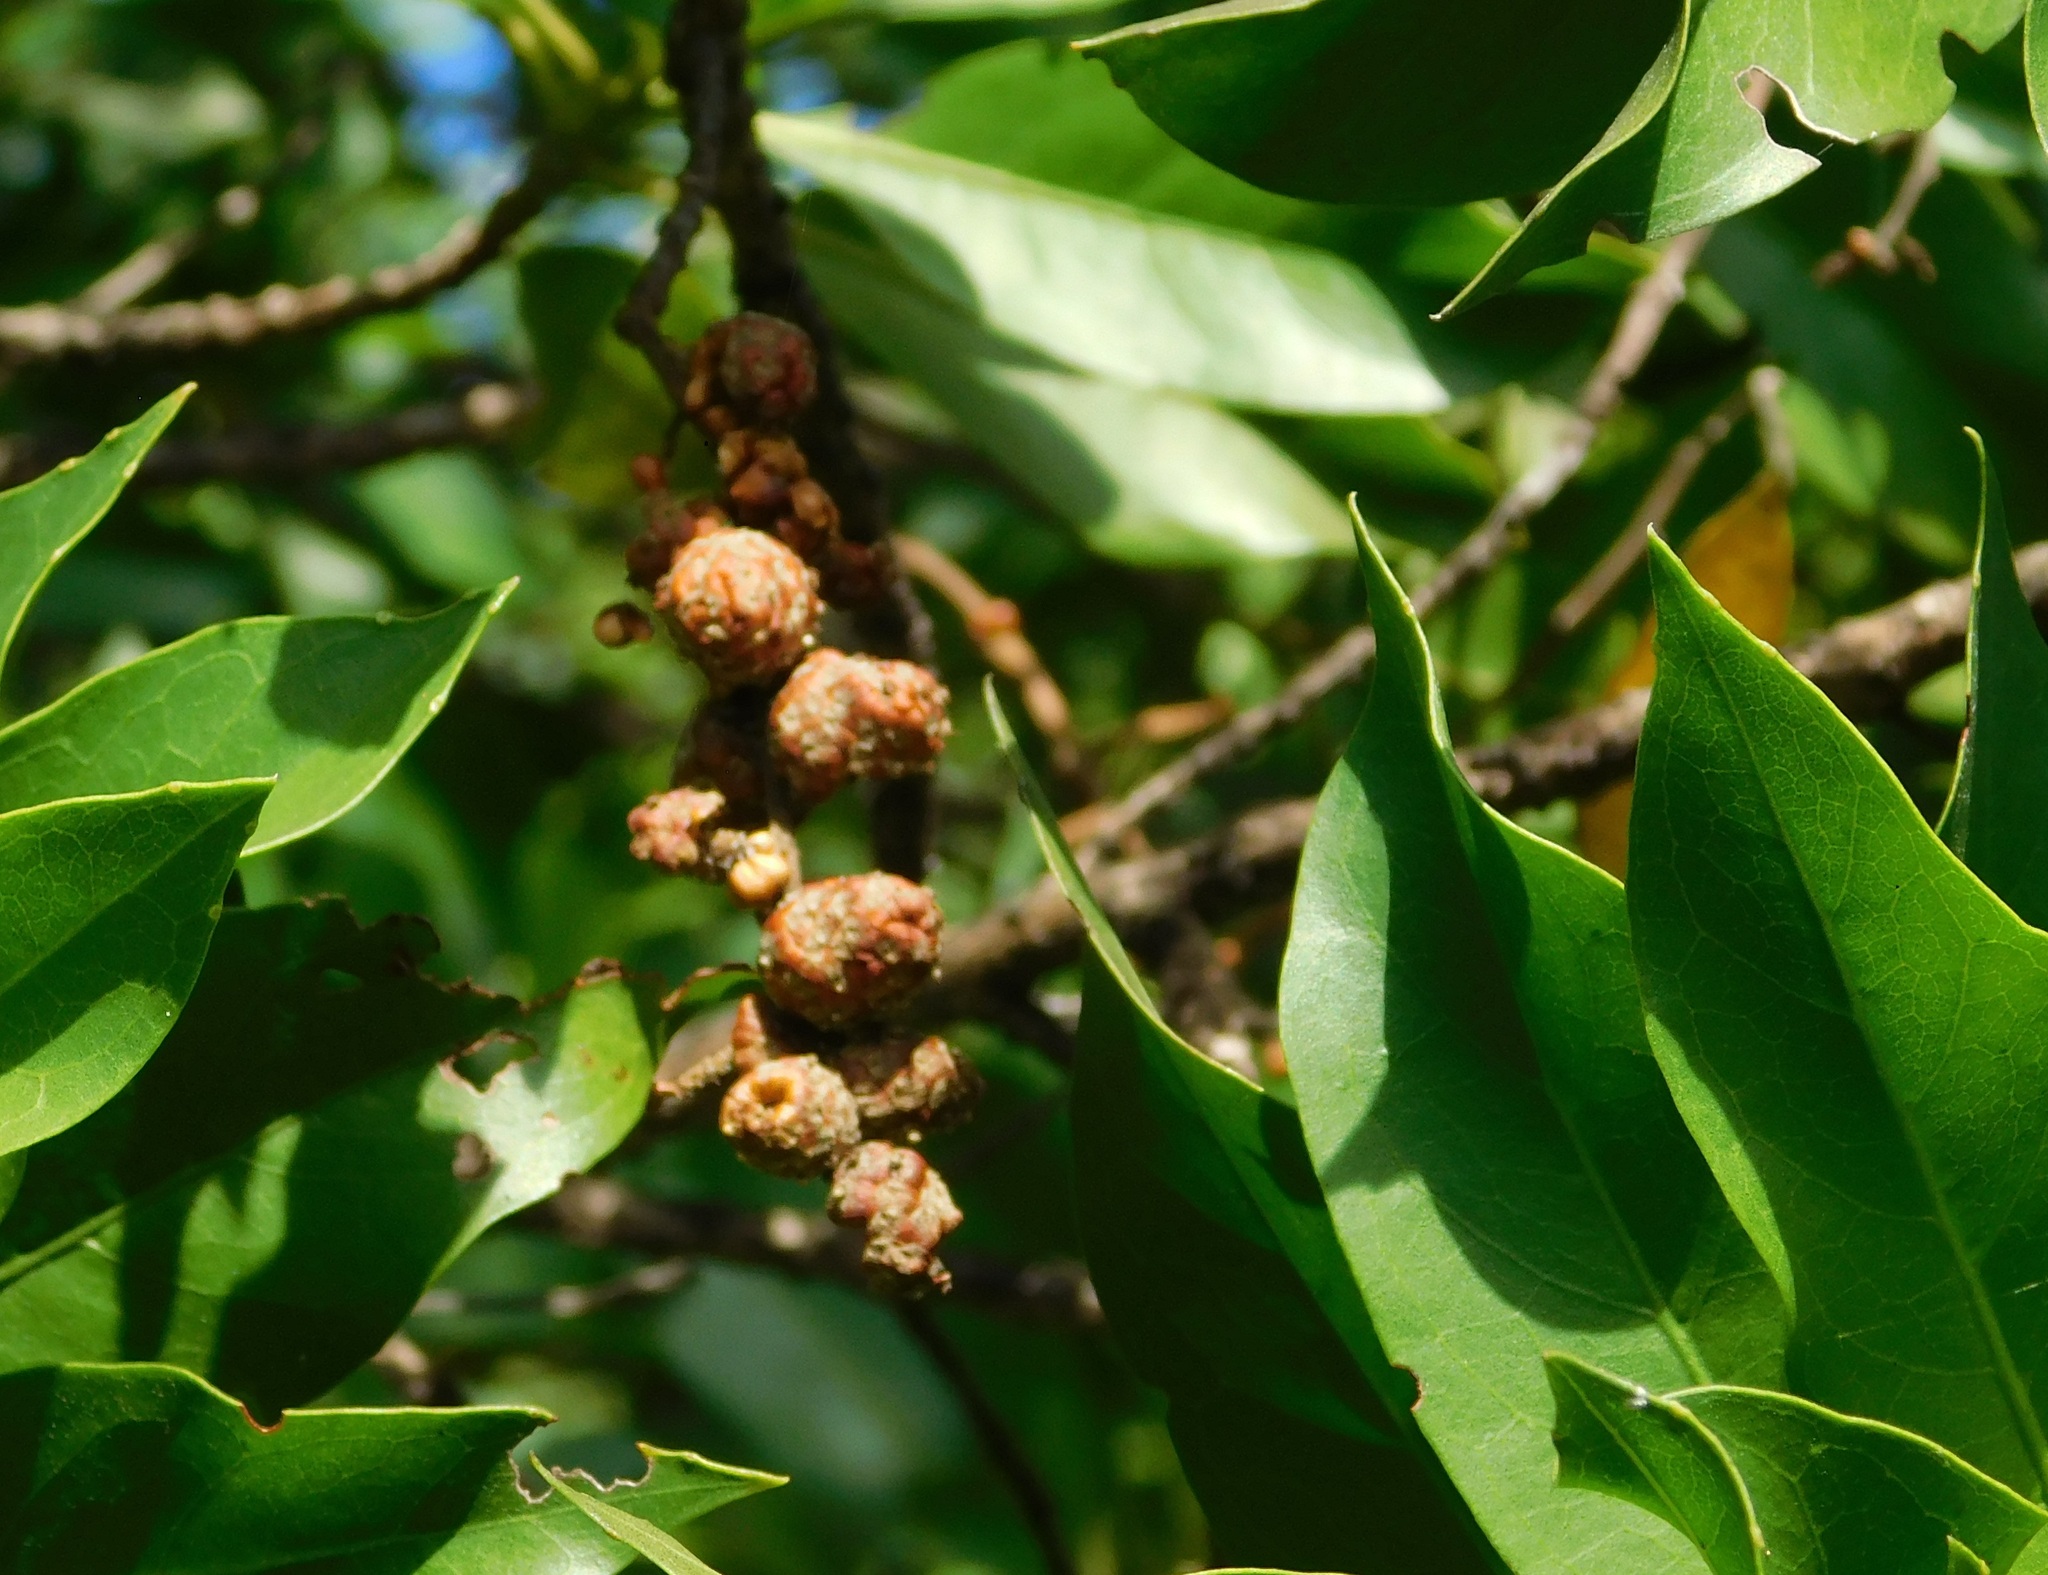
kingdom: Plantae
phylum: Tracheophyta
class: Magnoliopsida
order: Myrtales
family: Combretaceae
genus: Conocarpus
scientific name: Conocarpus erectus
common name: Button mangrove
